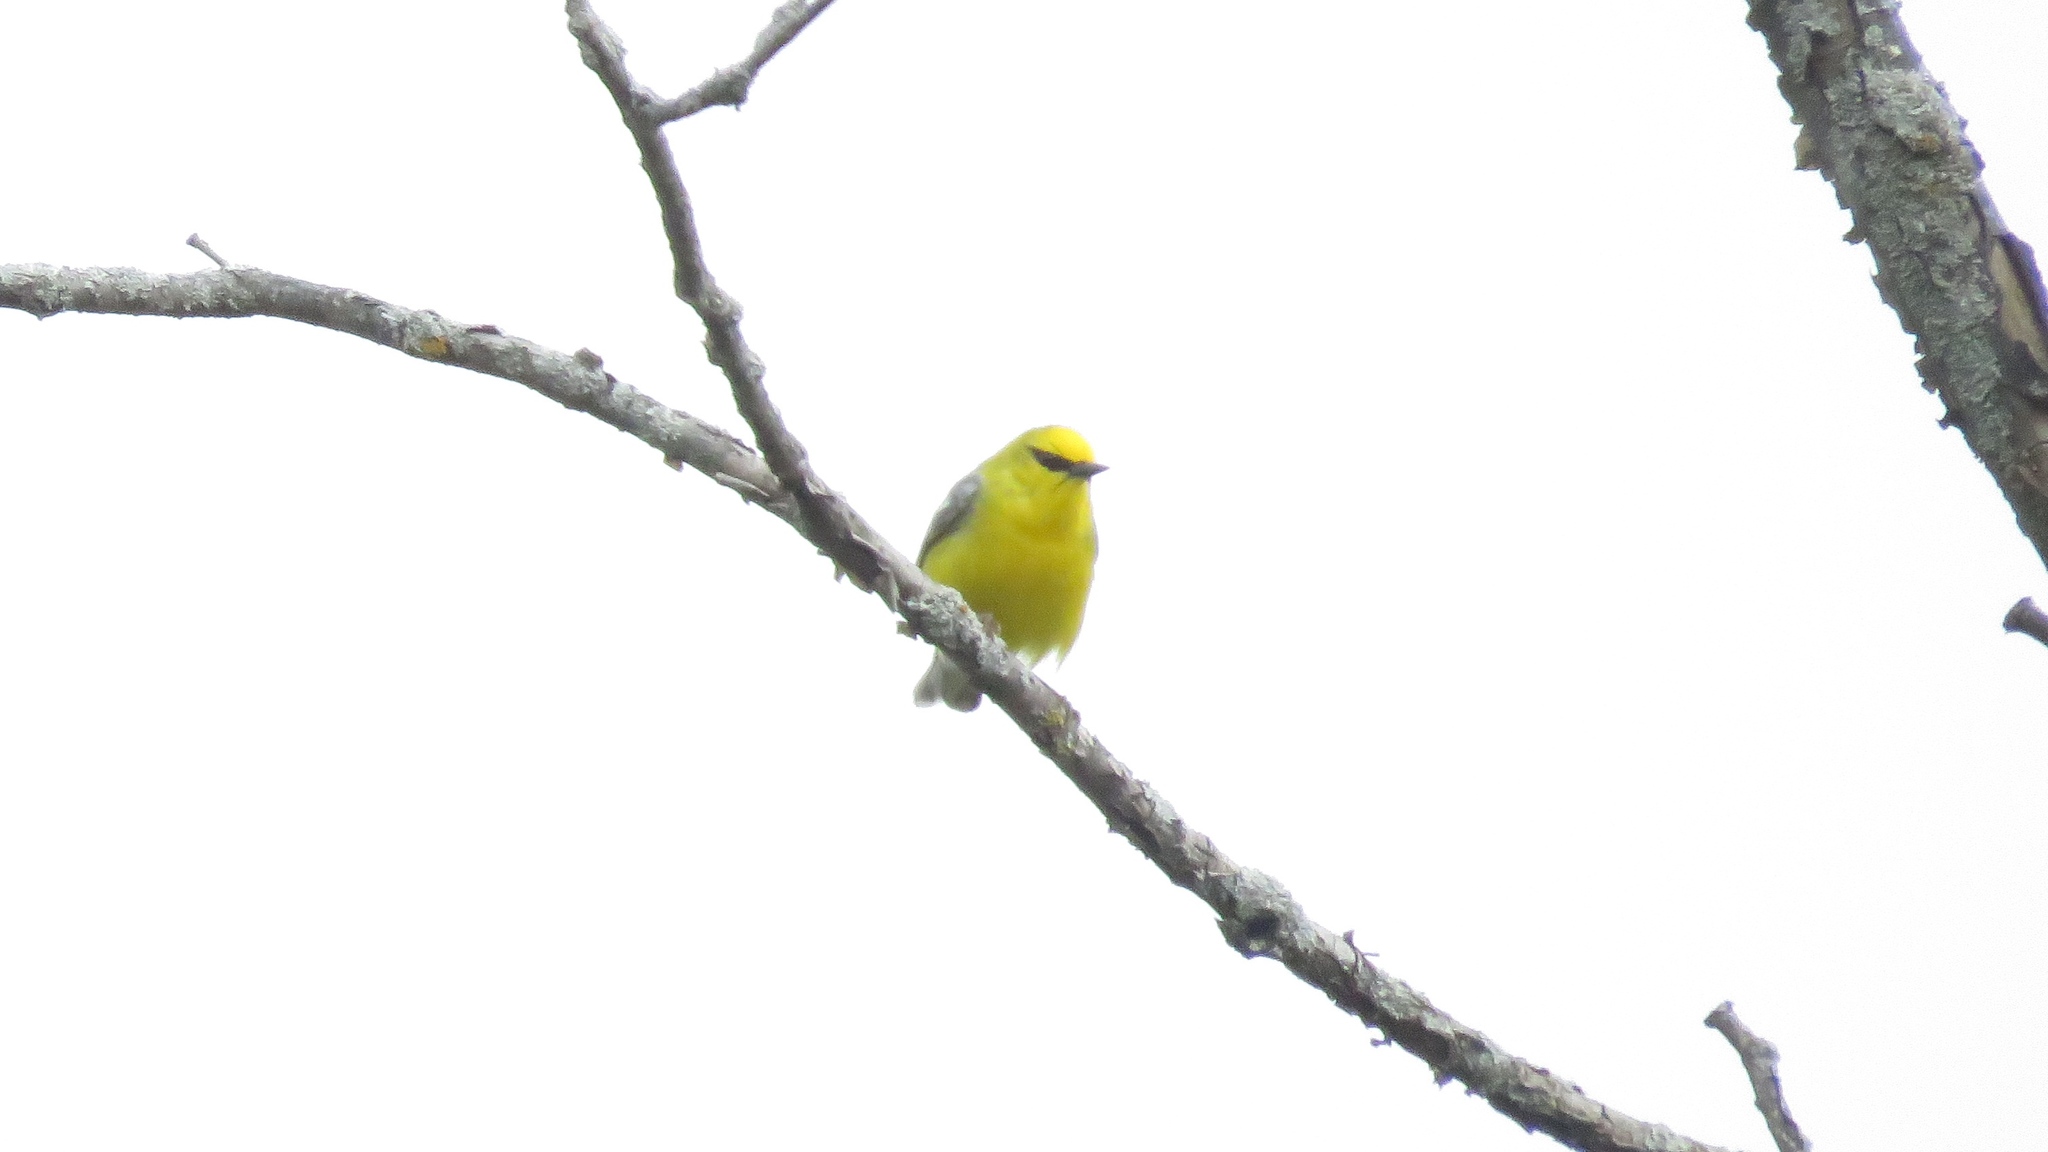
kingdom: Animalia
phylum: Chordata
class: Aves
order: Passeriformes
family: Parulidae
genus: Vermivora
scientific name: Vermivora cyanoptera
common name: Blue-winged warbler
